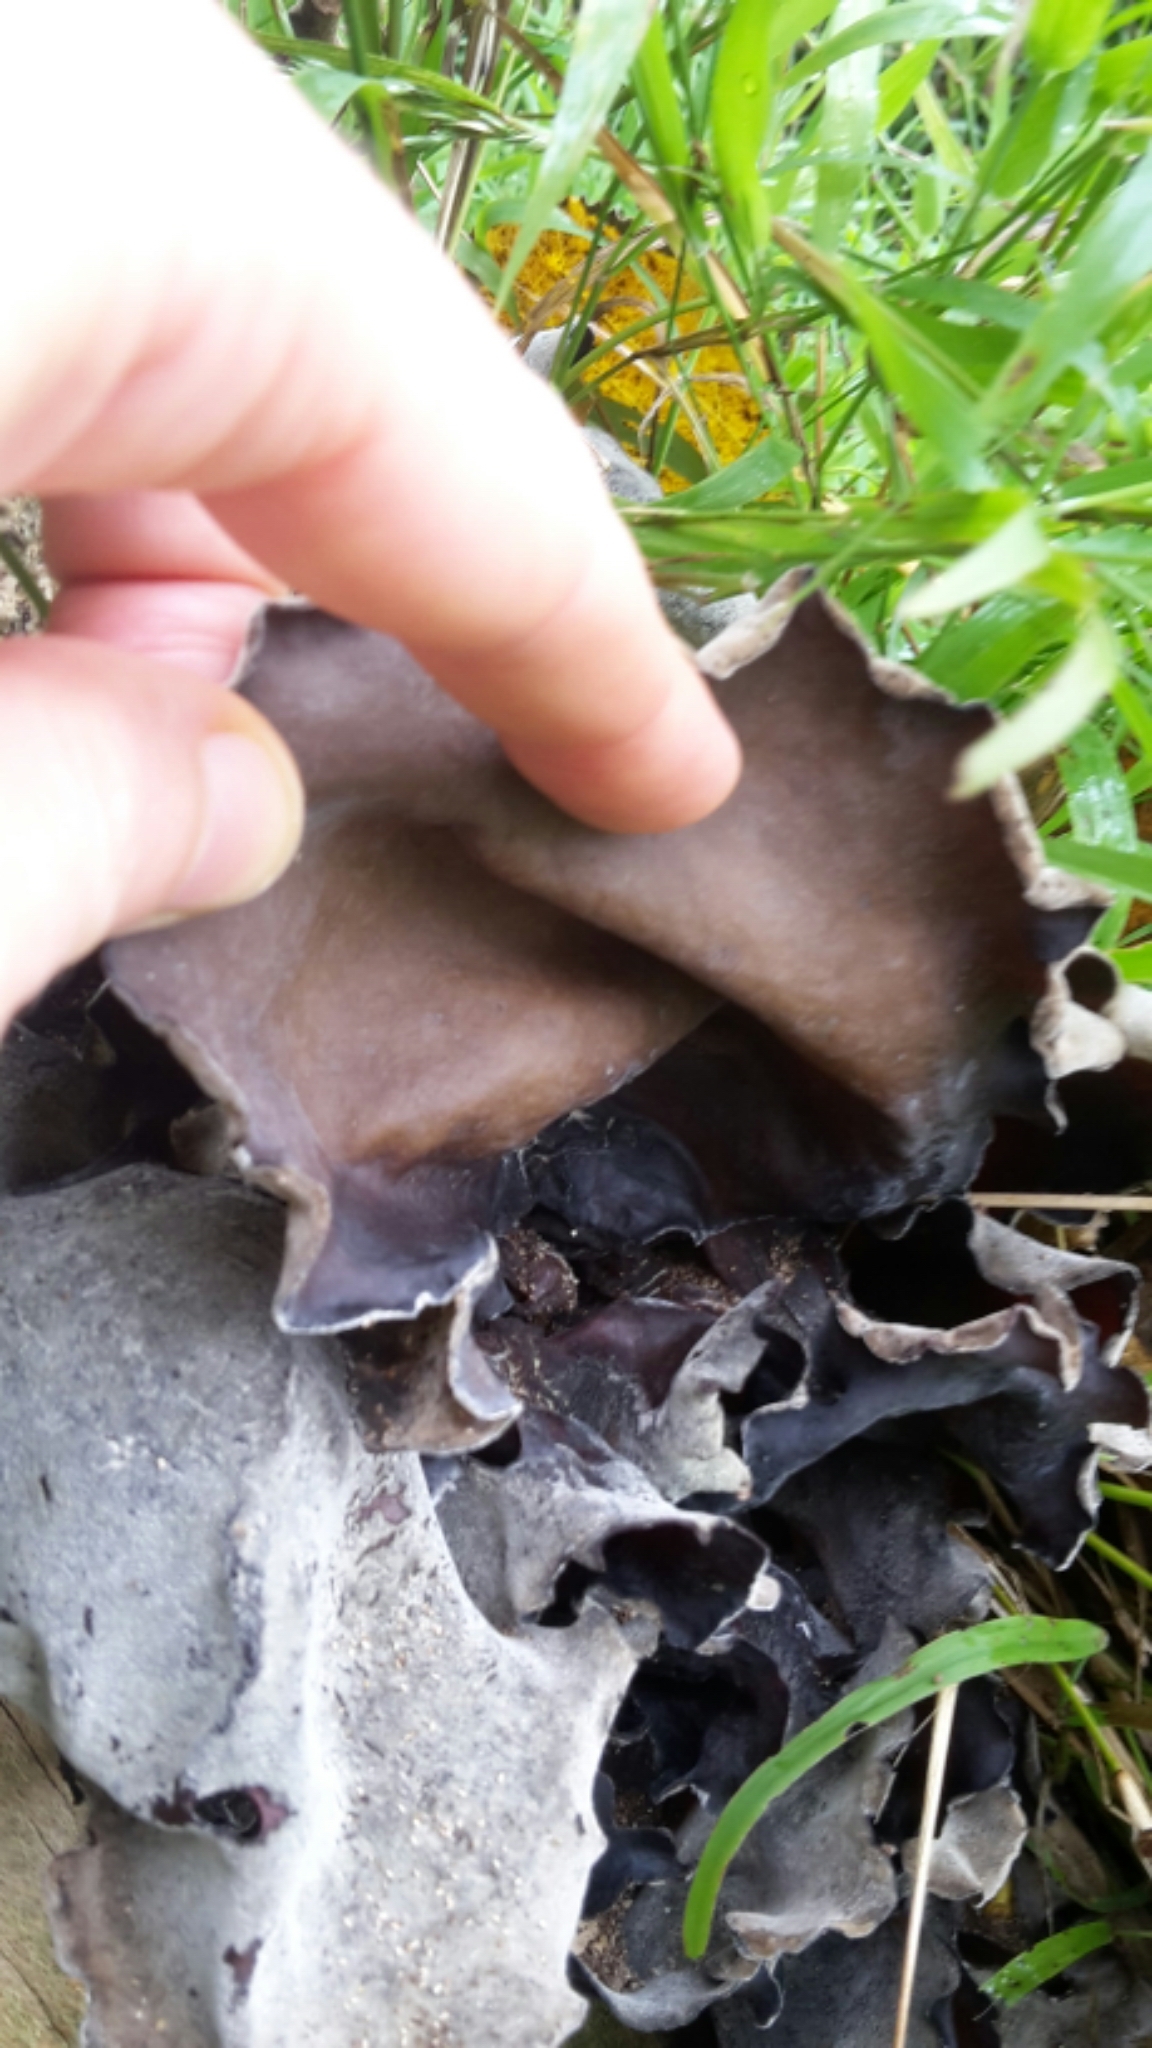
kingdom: Fungi
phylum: Basidiomycota
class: Agaricomycetes
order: Auriculariales
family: Auriculariaceae
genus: Auricularia
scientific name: Auricularia cornea
